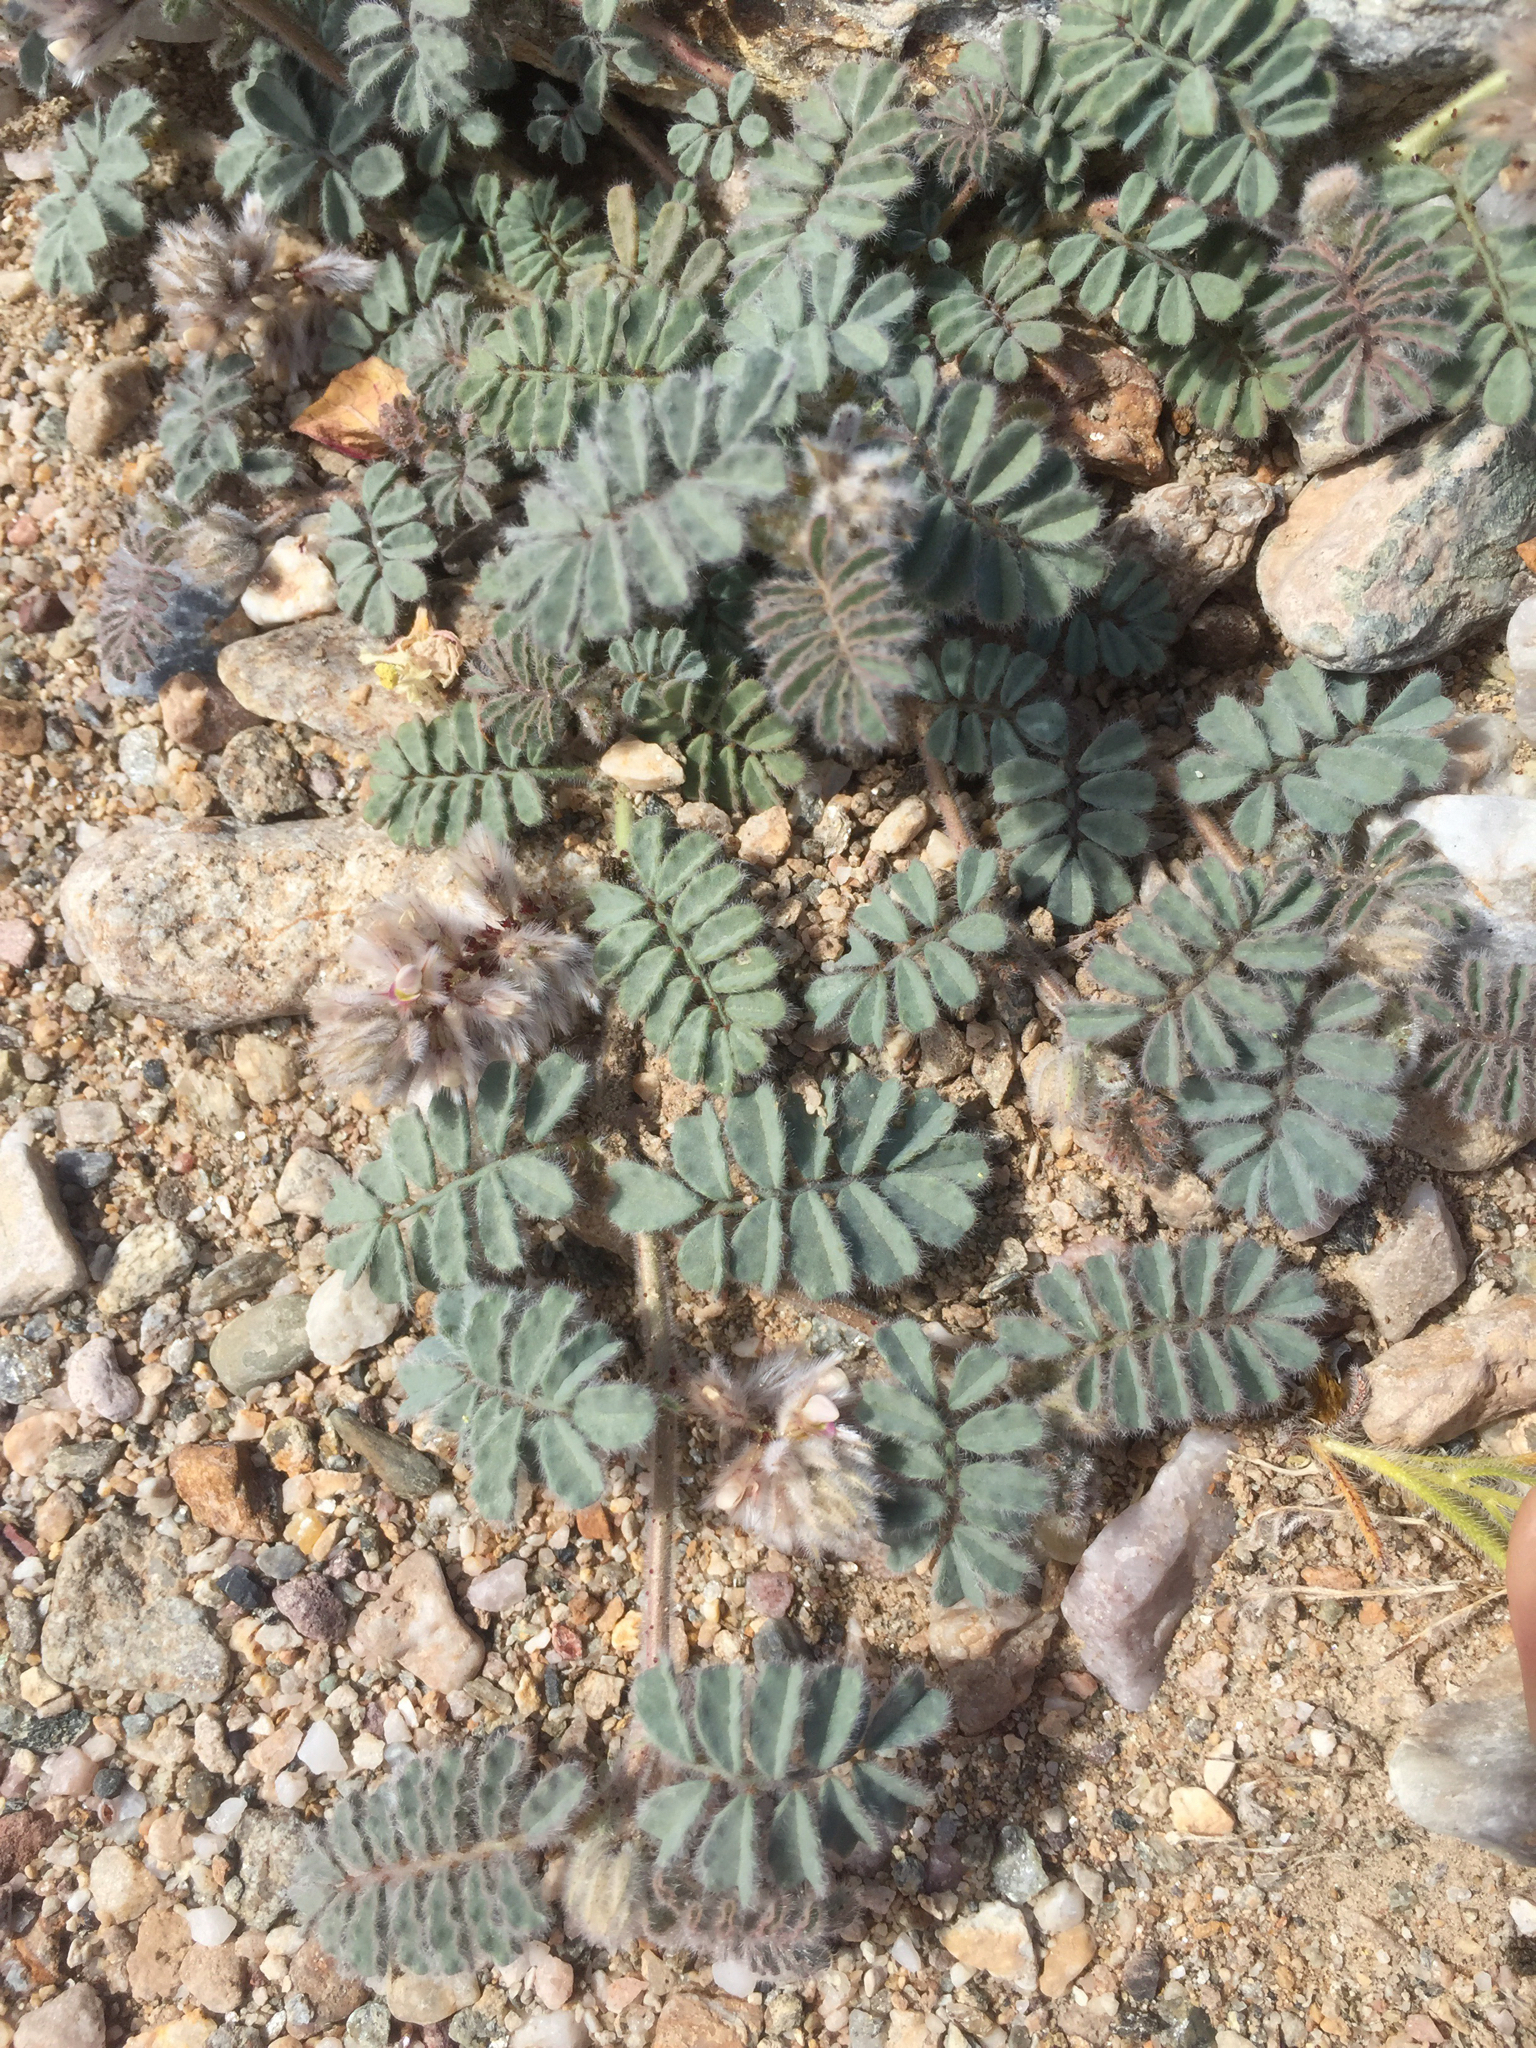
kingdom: Plantae
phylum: Tracheophyta
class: Magnoliopsida
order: Fabales
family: Fabaceae
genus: Dalea
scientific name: Dalea mollissima
